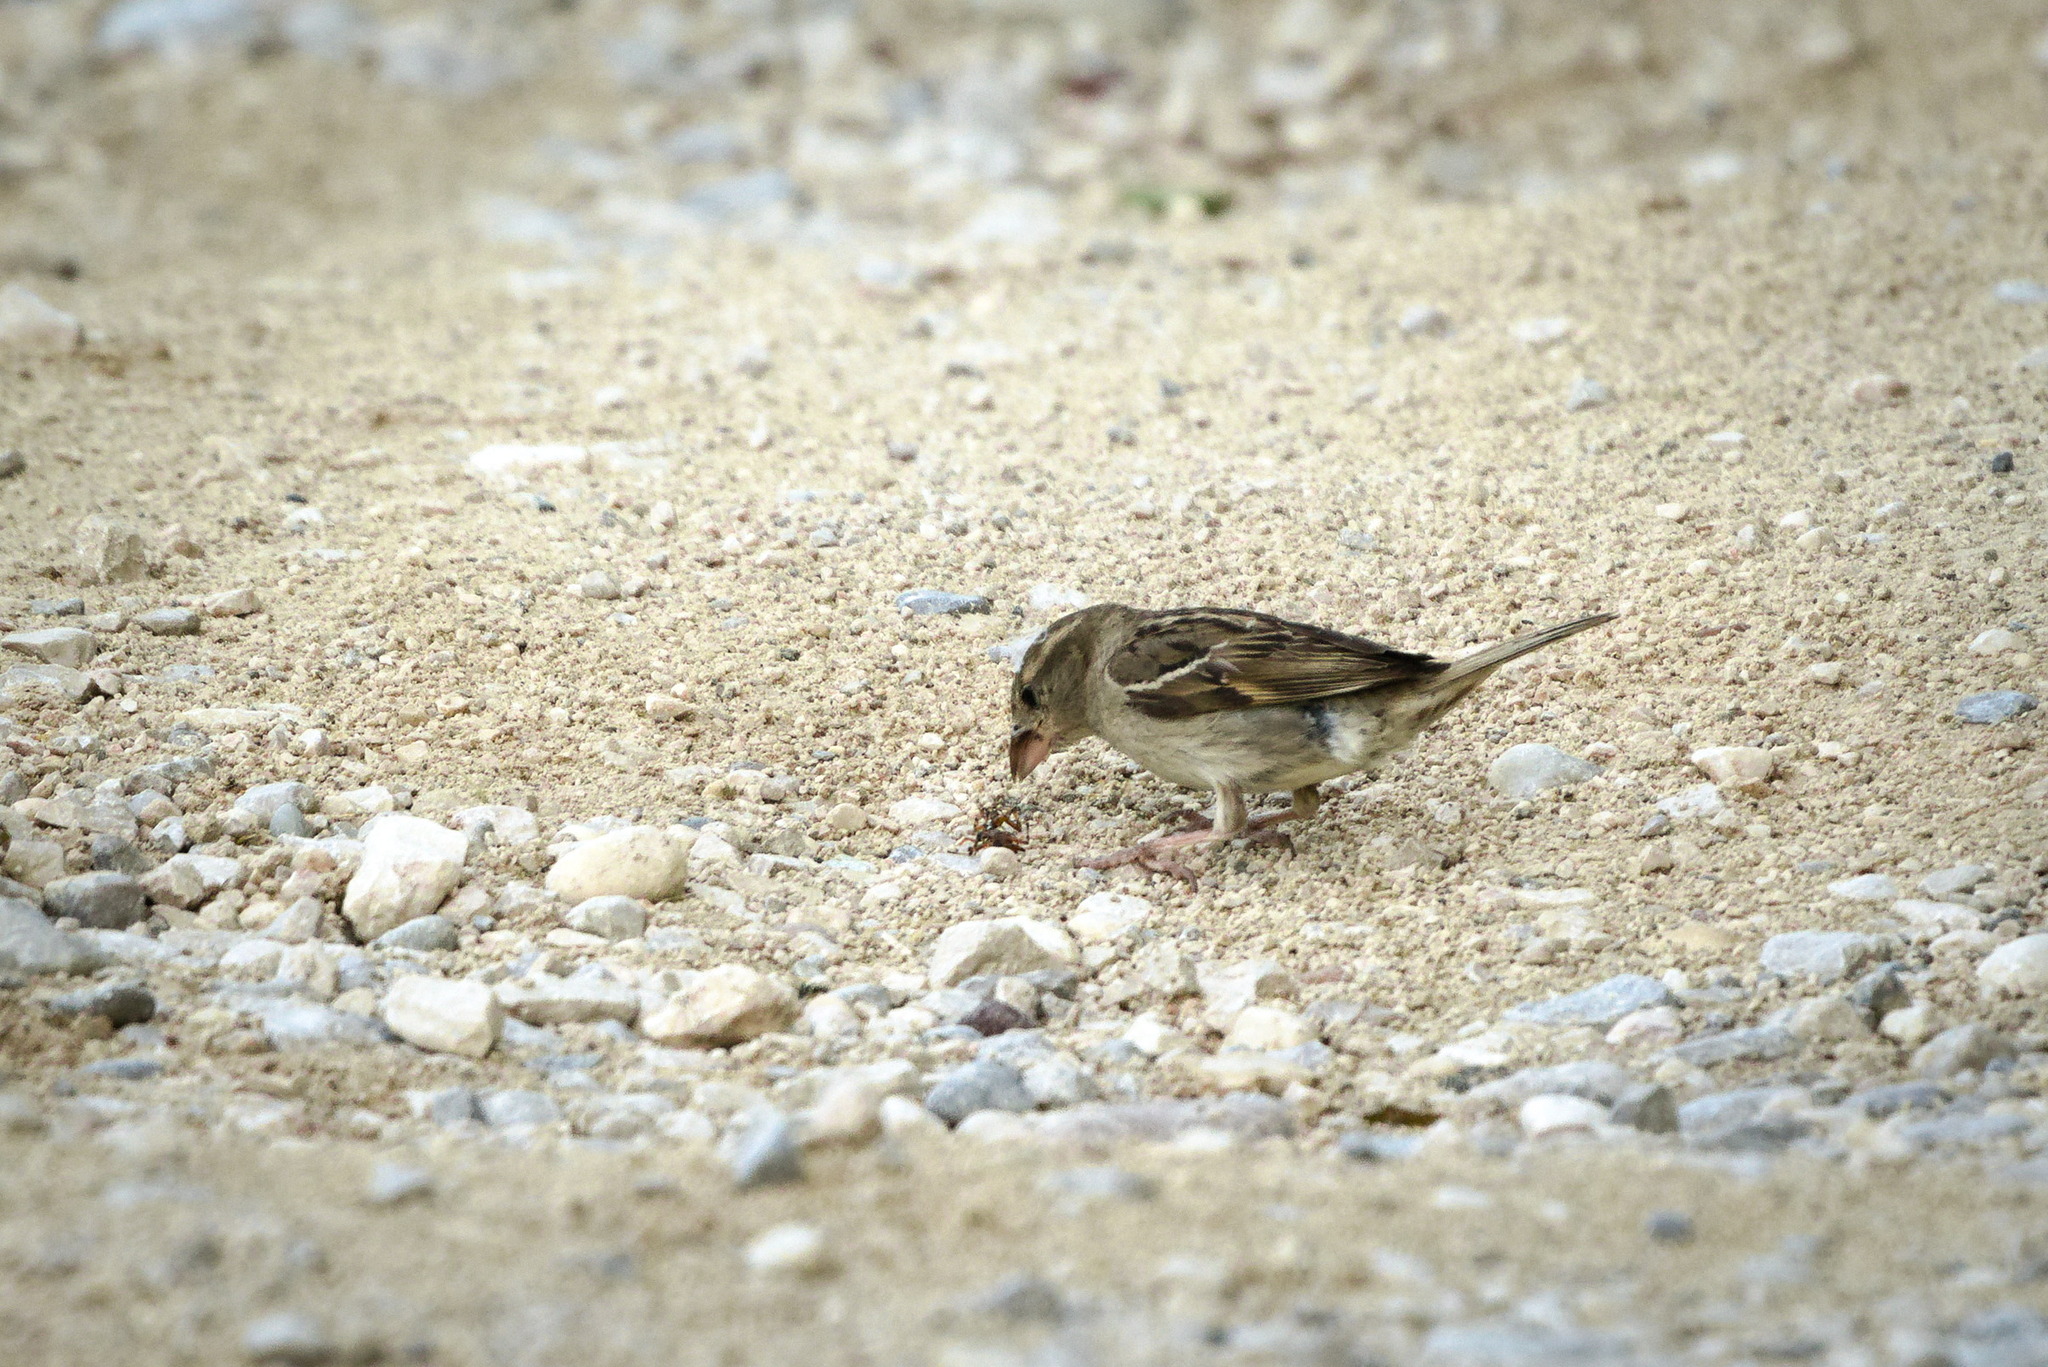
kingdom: Animalia
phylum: Chordata
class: Aves
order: Passeriformes
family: Passeridae
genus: Passer
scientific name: Passer domesticus
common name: House sparrow
